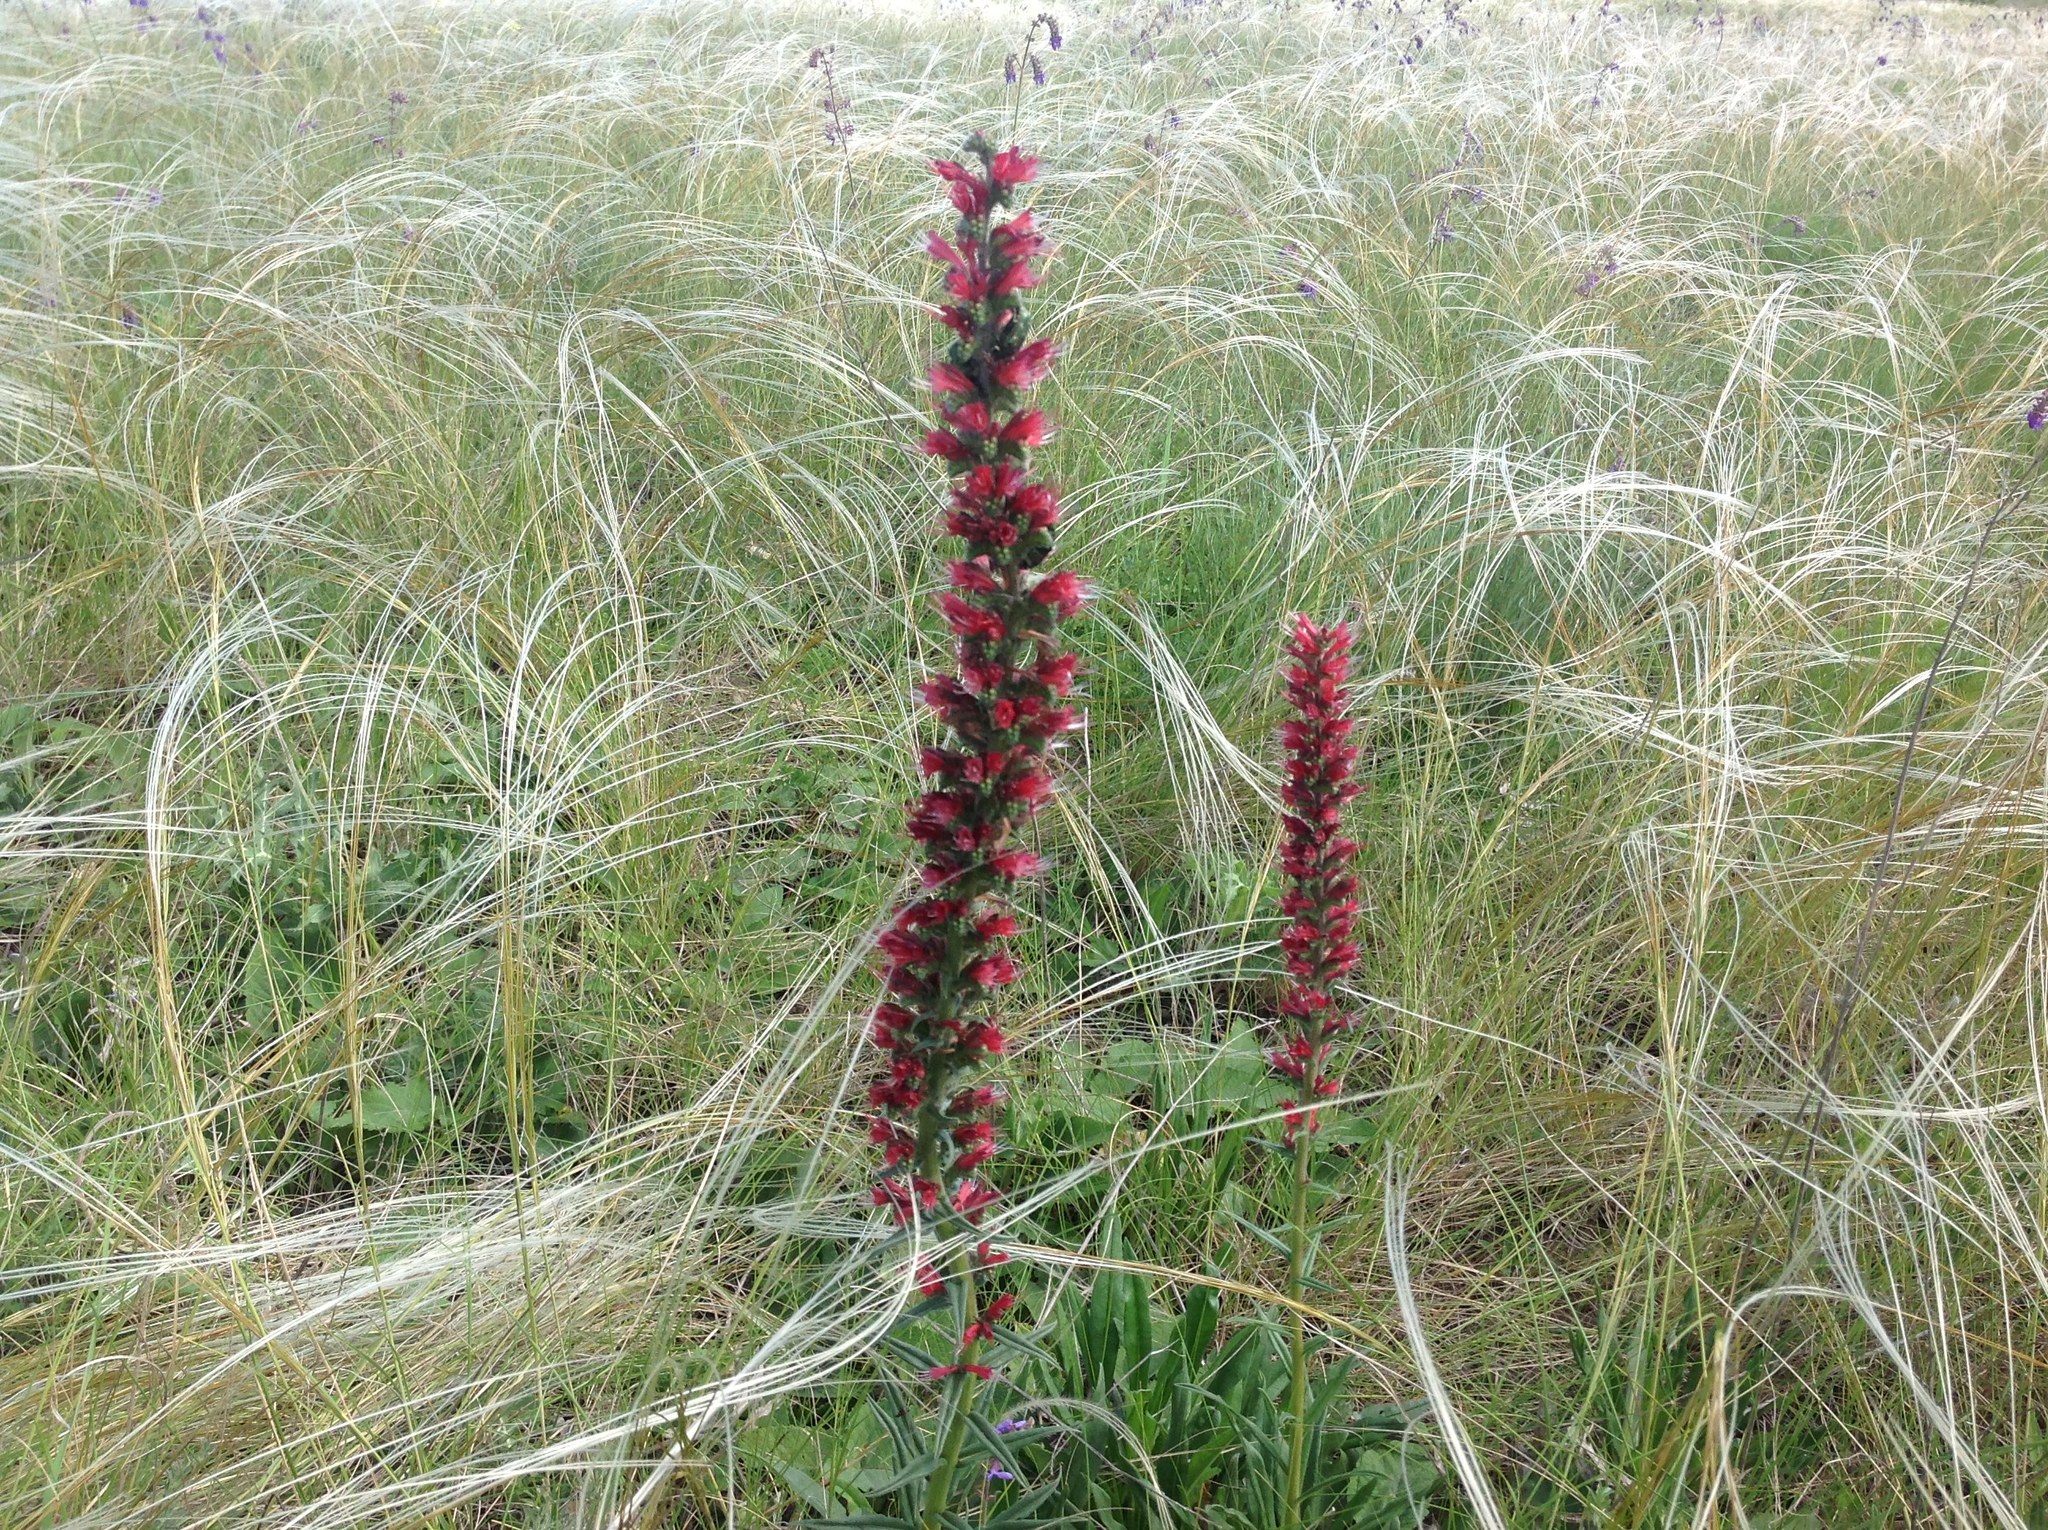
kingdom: Plantae
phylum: Tracheophyta
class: Magnoliopsida
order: Boraginales
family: Boraginaceae
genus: Pontechium
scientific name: Pontechium maculatum
